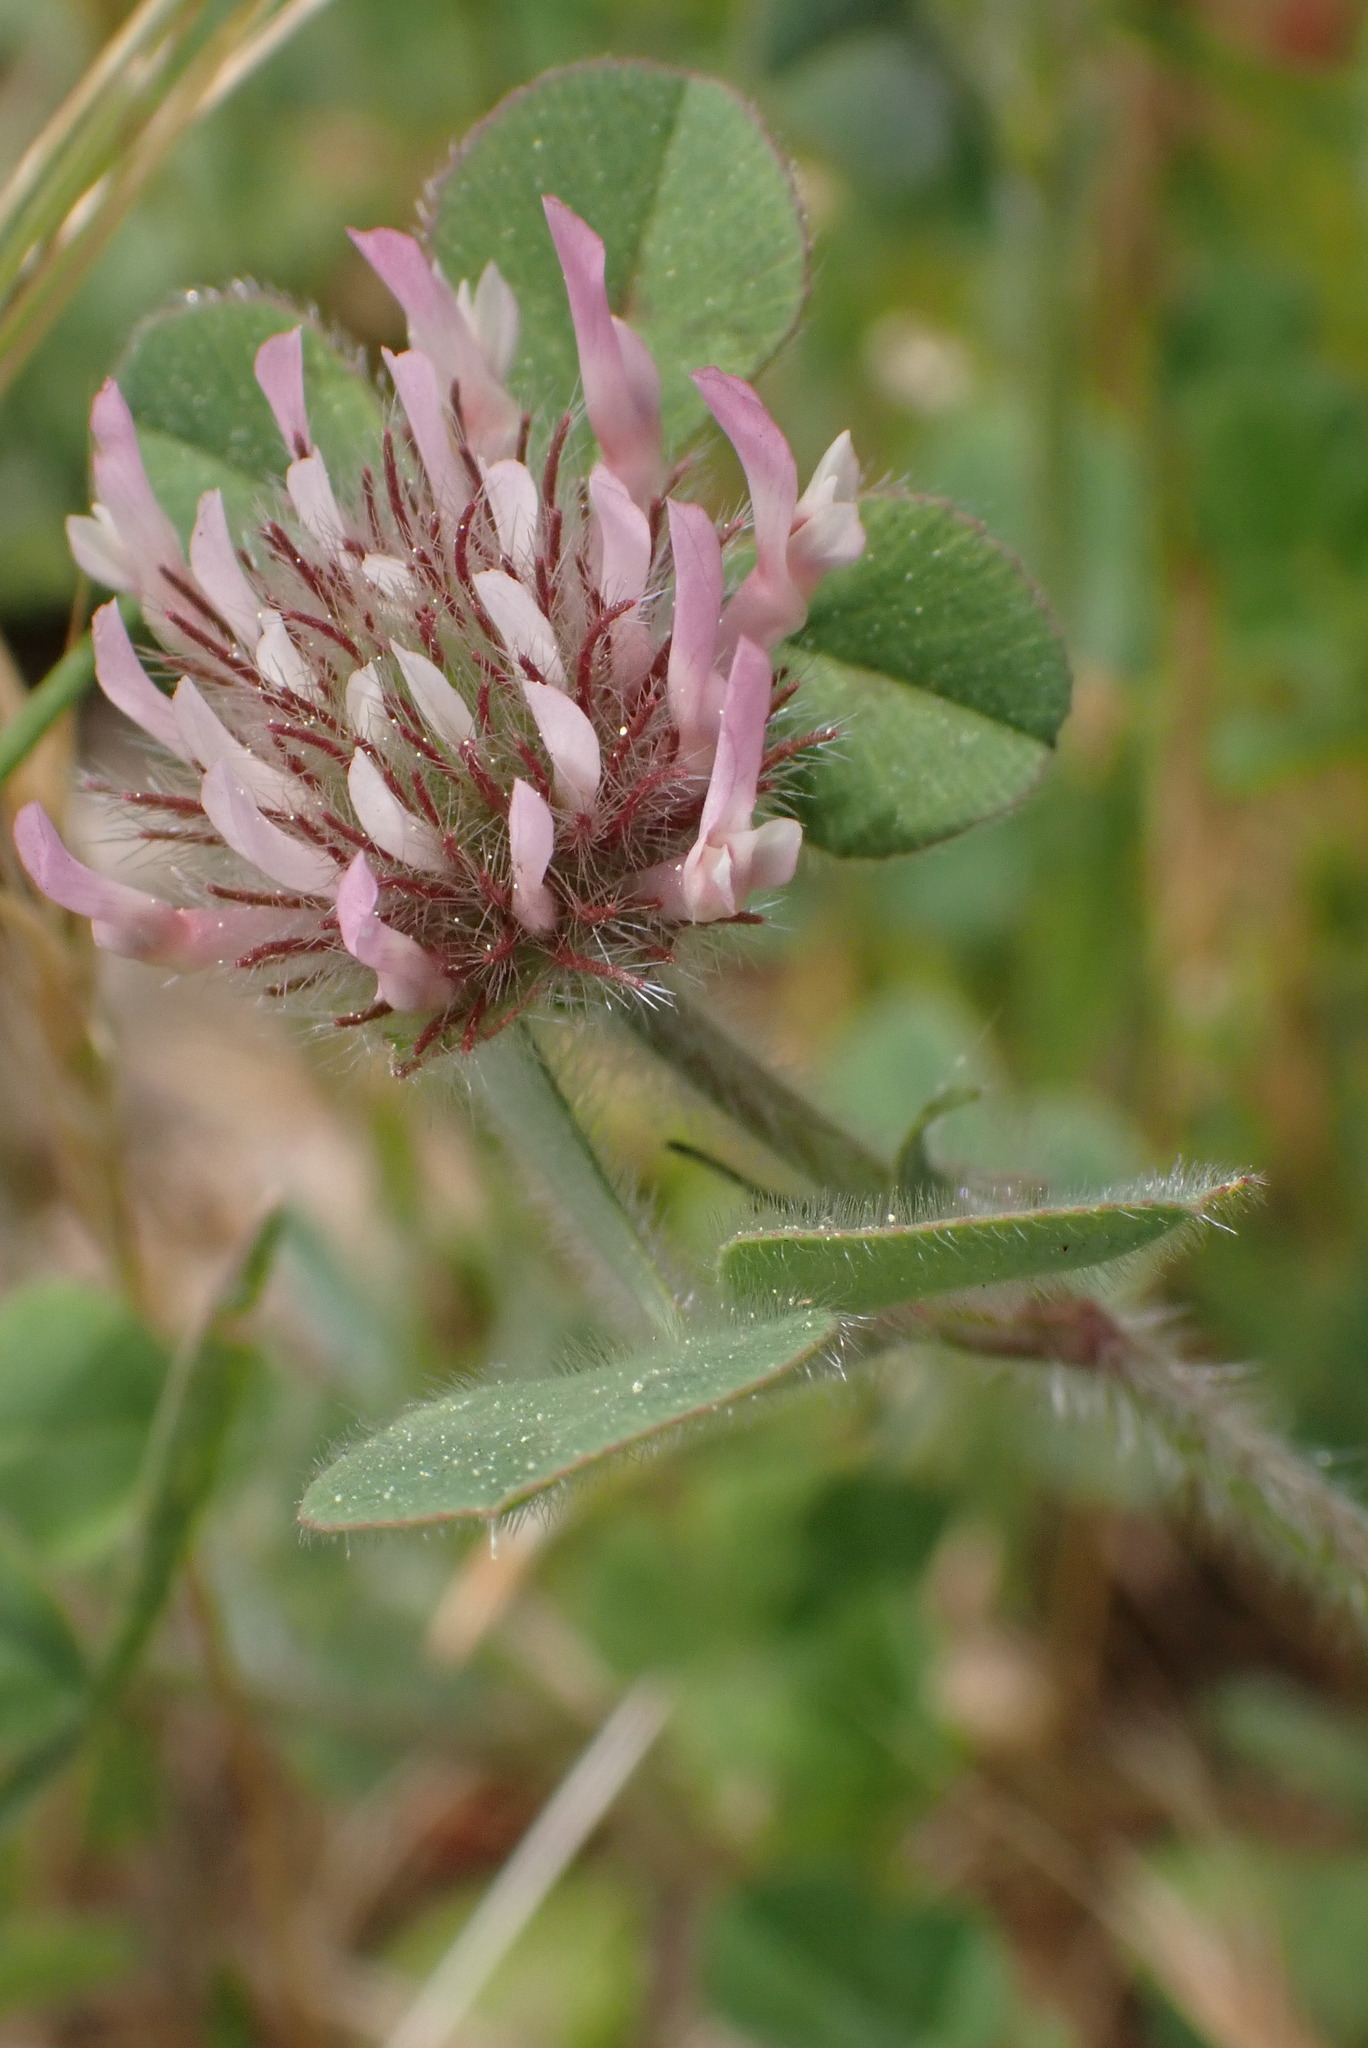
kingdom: Plantae
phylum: Tracheophyta
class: Magnoliopsida
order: Fabales
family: Fabaceae
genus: Trifolium
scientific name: Trifolium hirtum
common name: Rose clover
